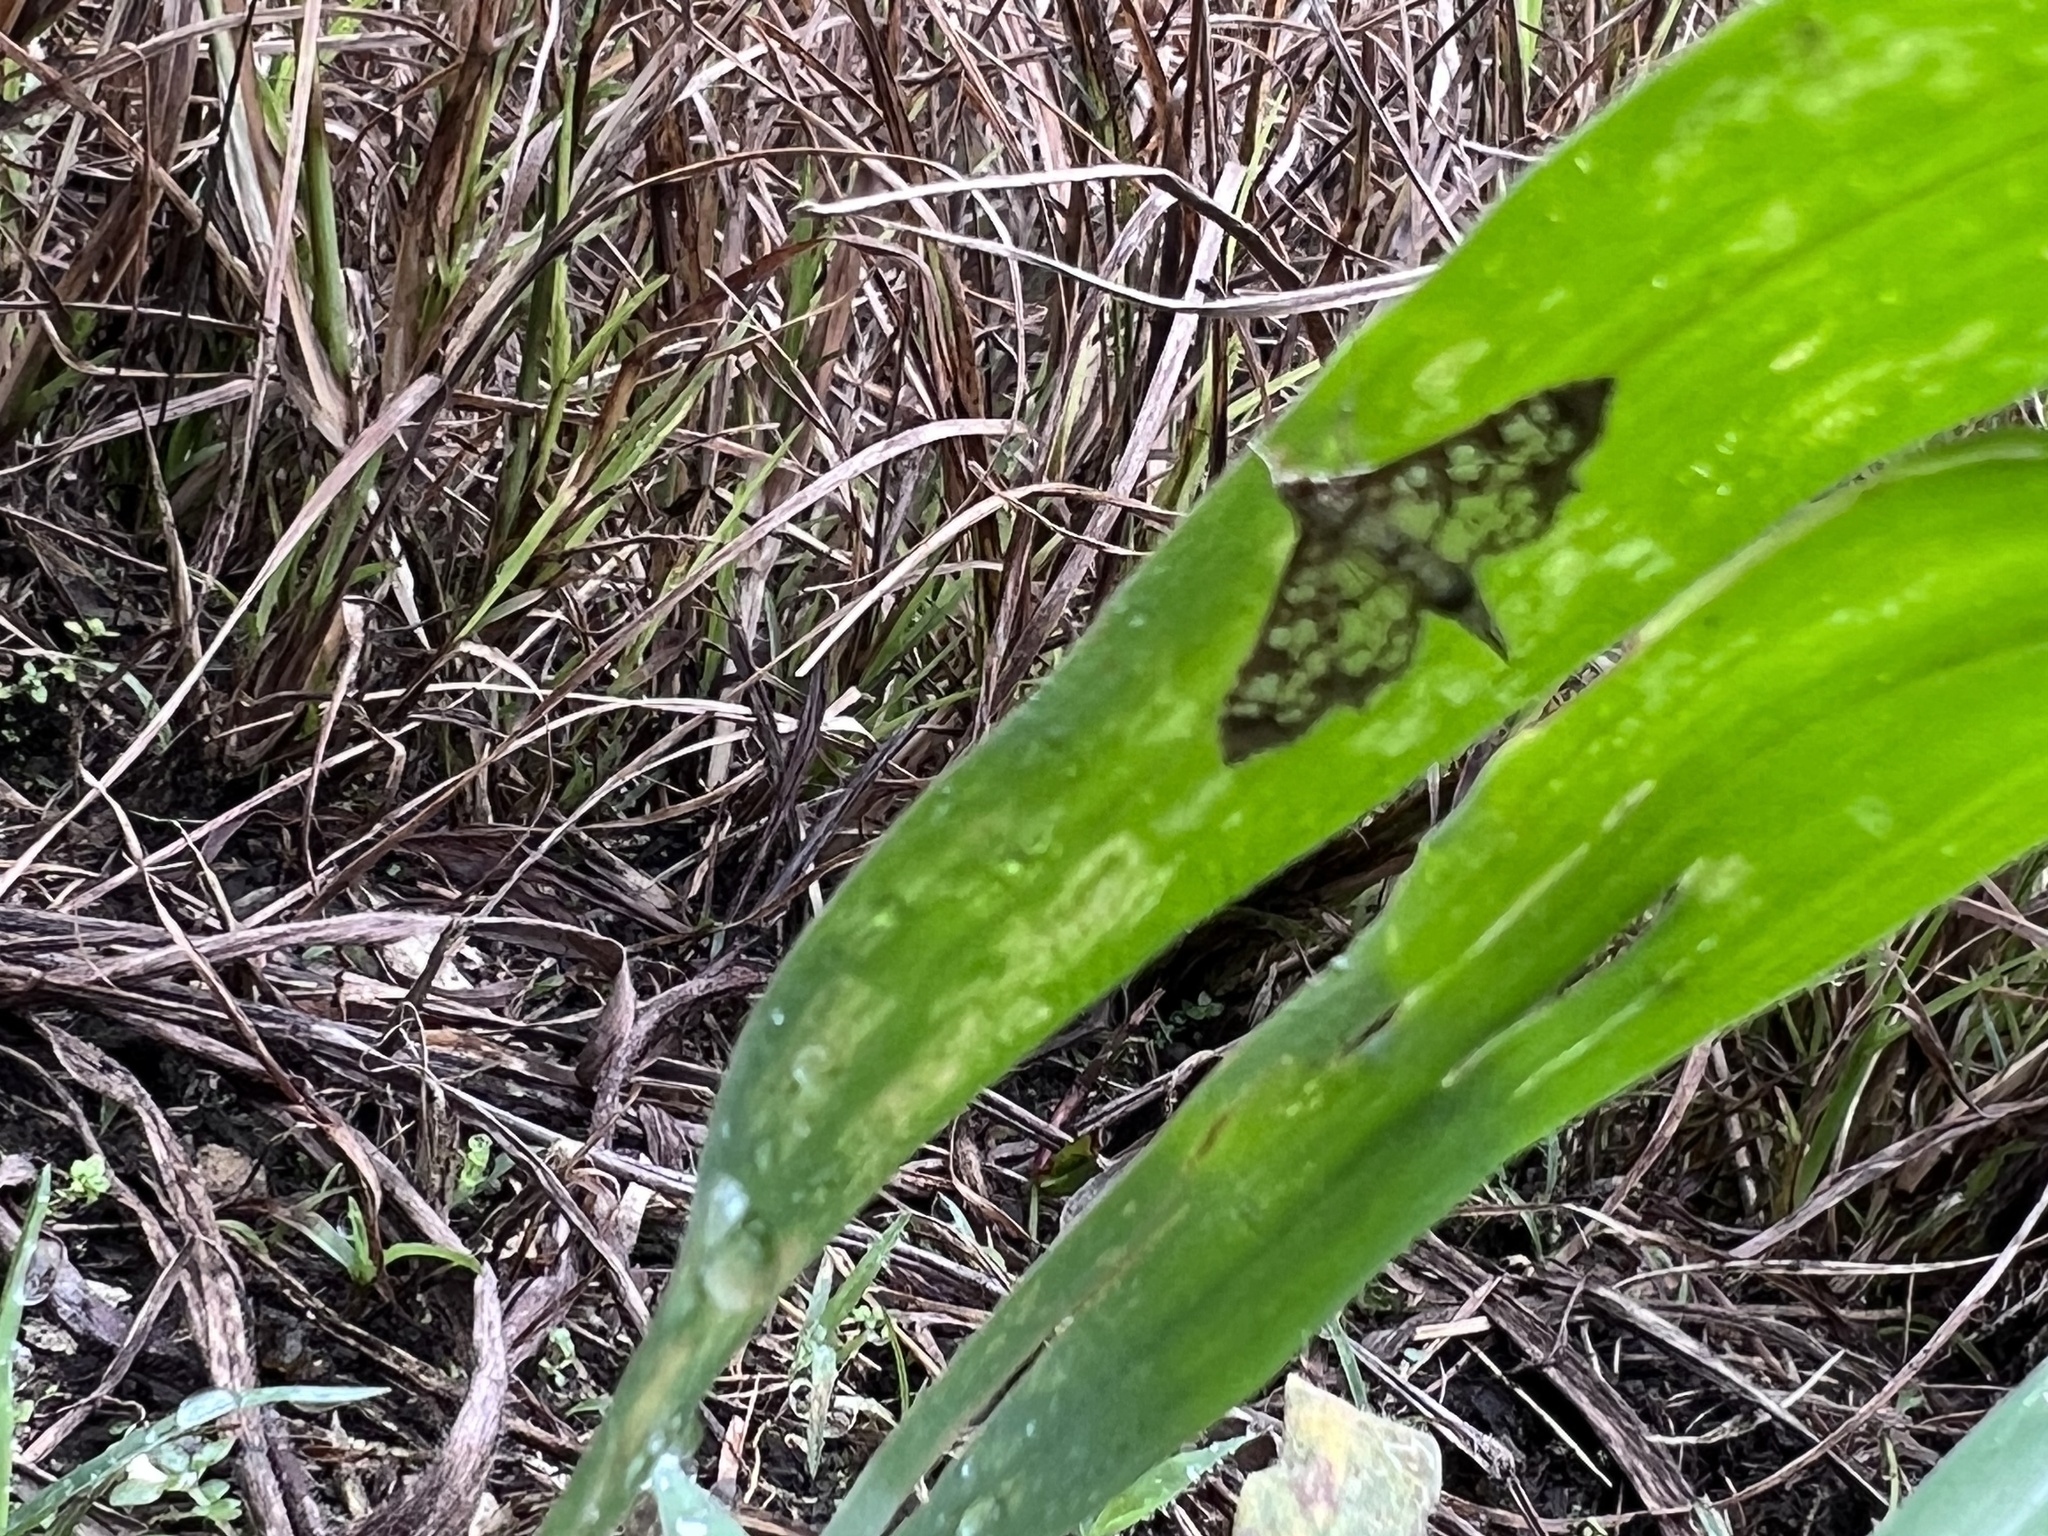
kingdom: Animalia
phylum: Arthropoda
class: Insecta
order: Lepidoptera
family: Crambidae
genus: Samea
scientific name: Samea ecclesialis
